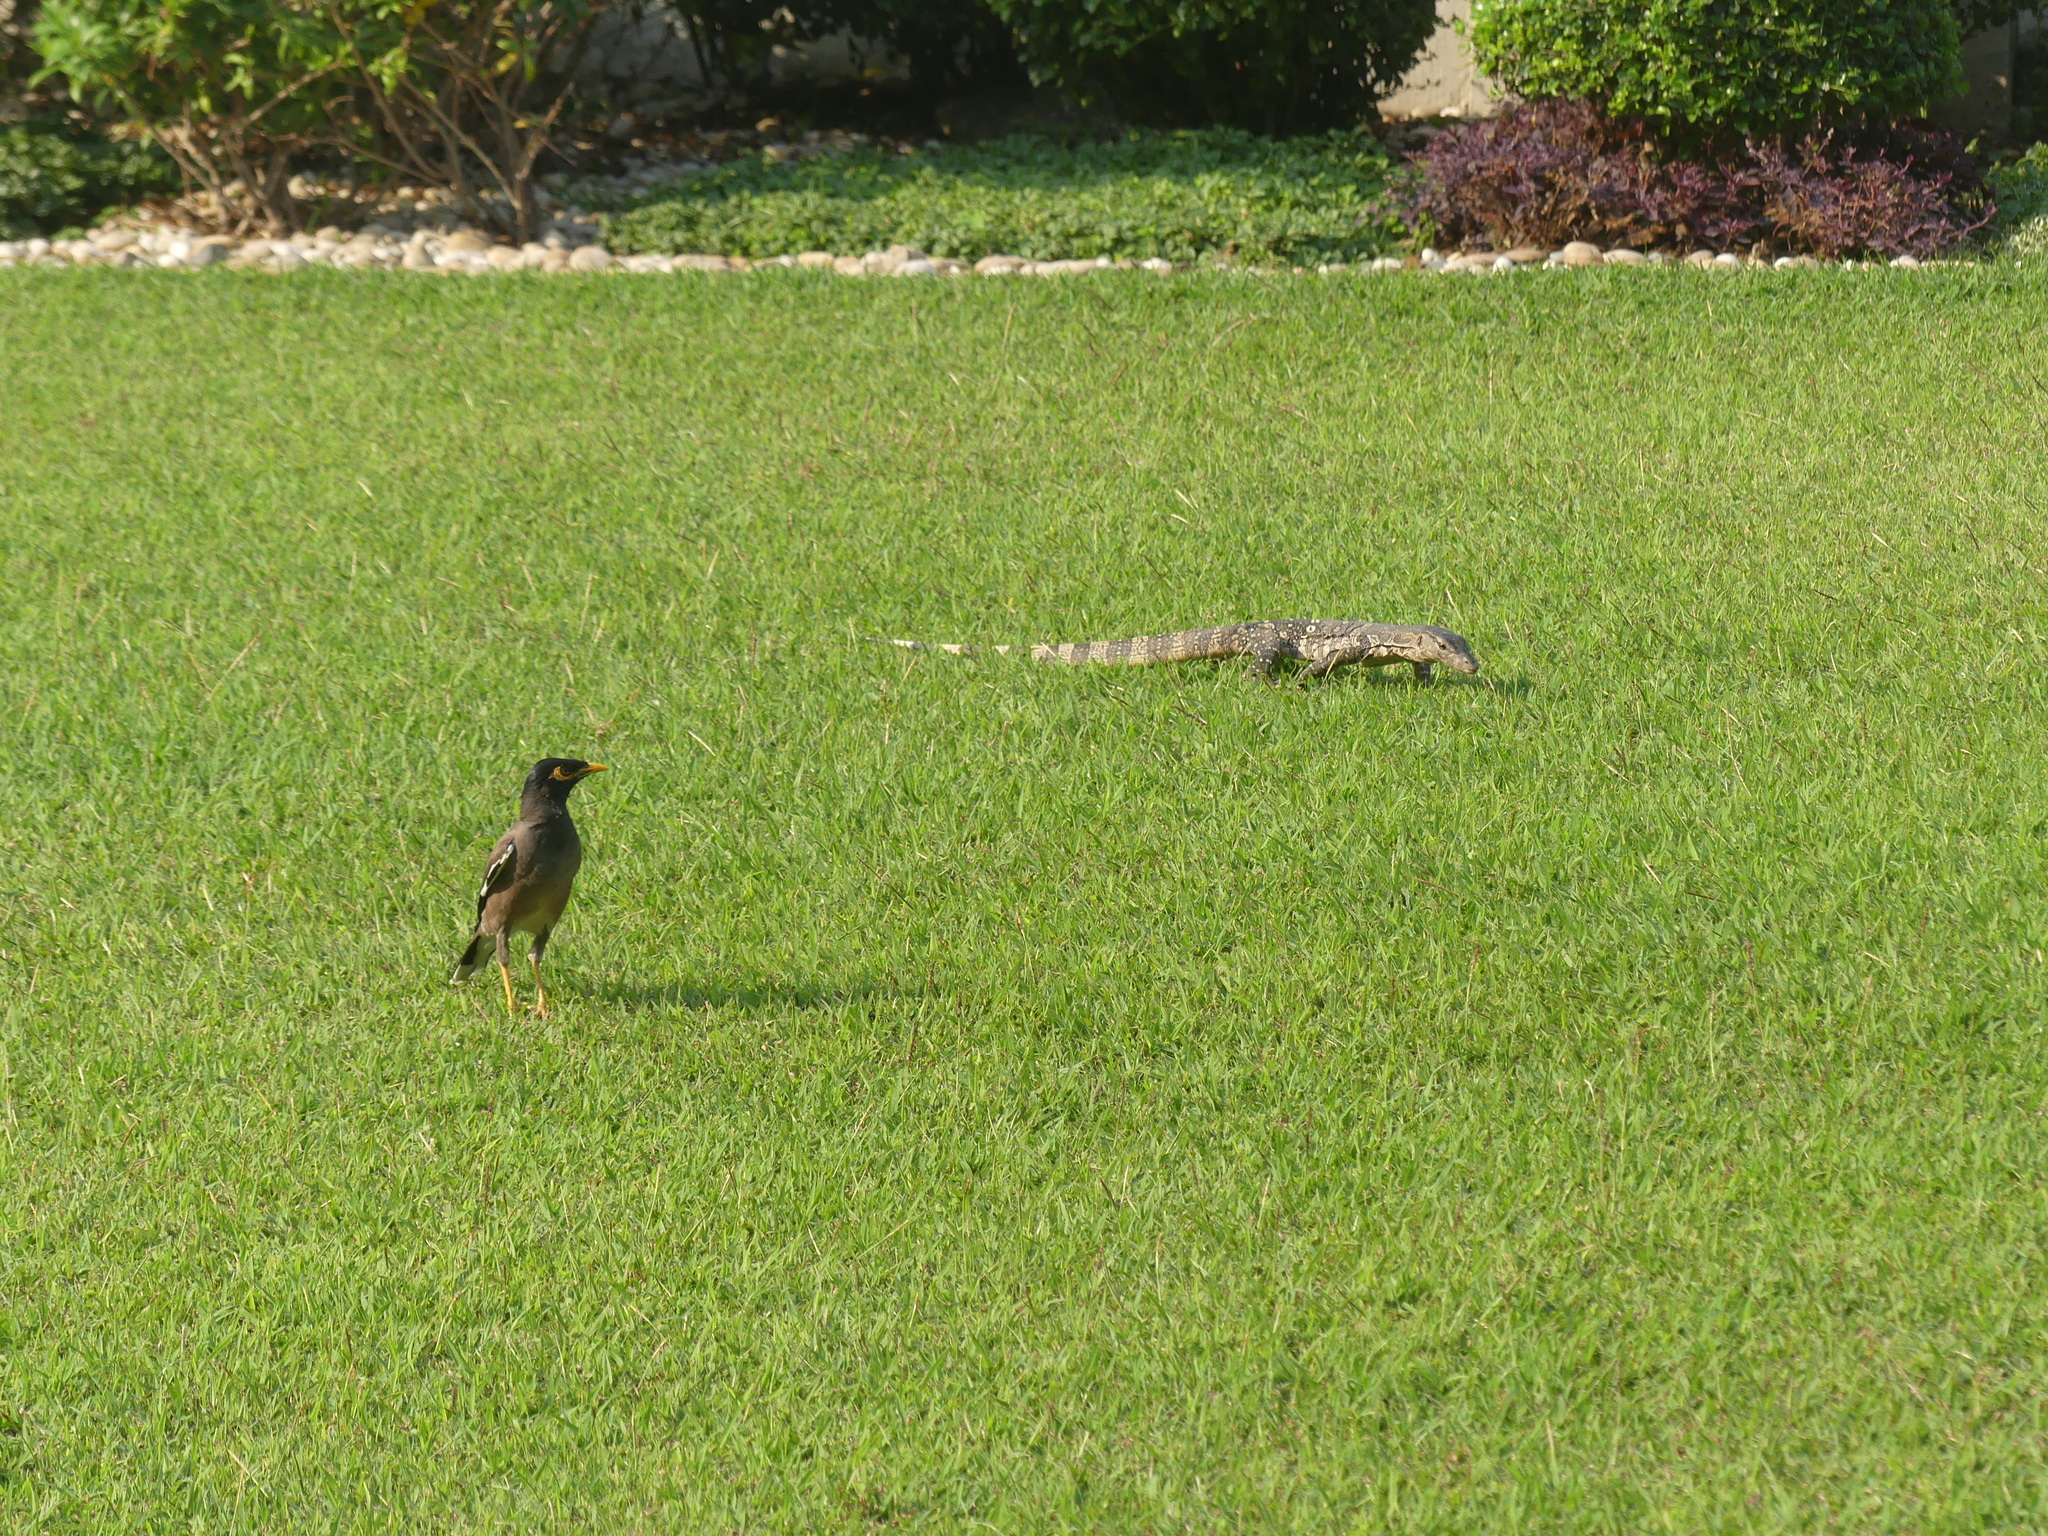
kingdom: Animalia
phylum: Chordata
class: Squamata
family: Varanidae
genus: Varanus
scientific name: Varanus salvator
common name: Common water monitor
